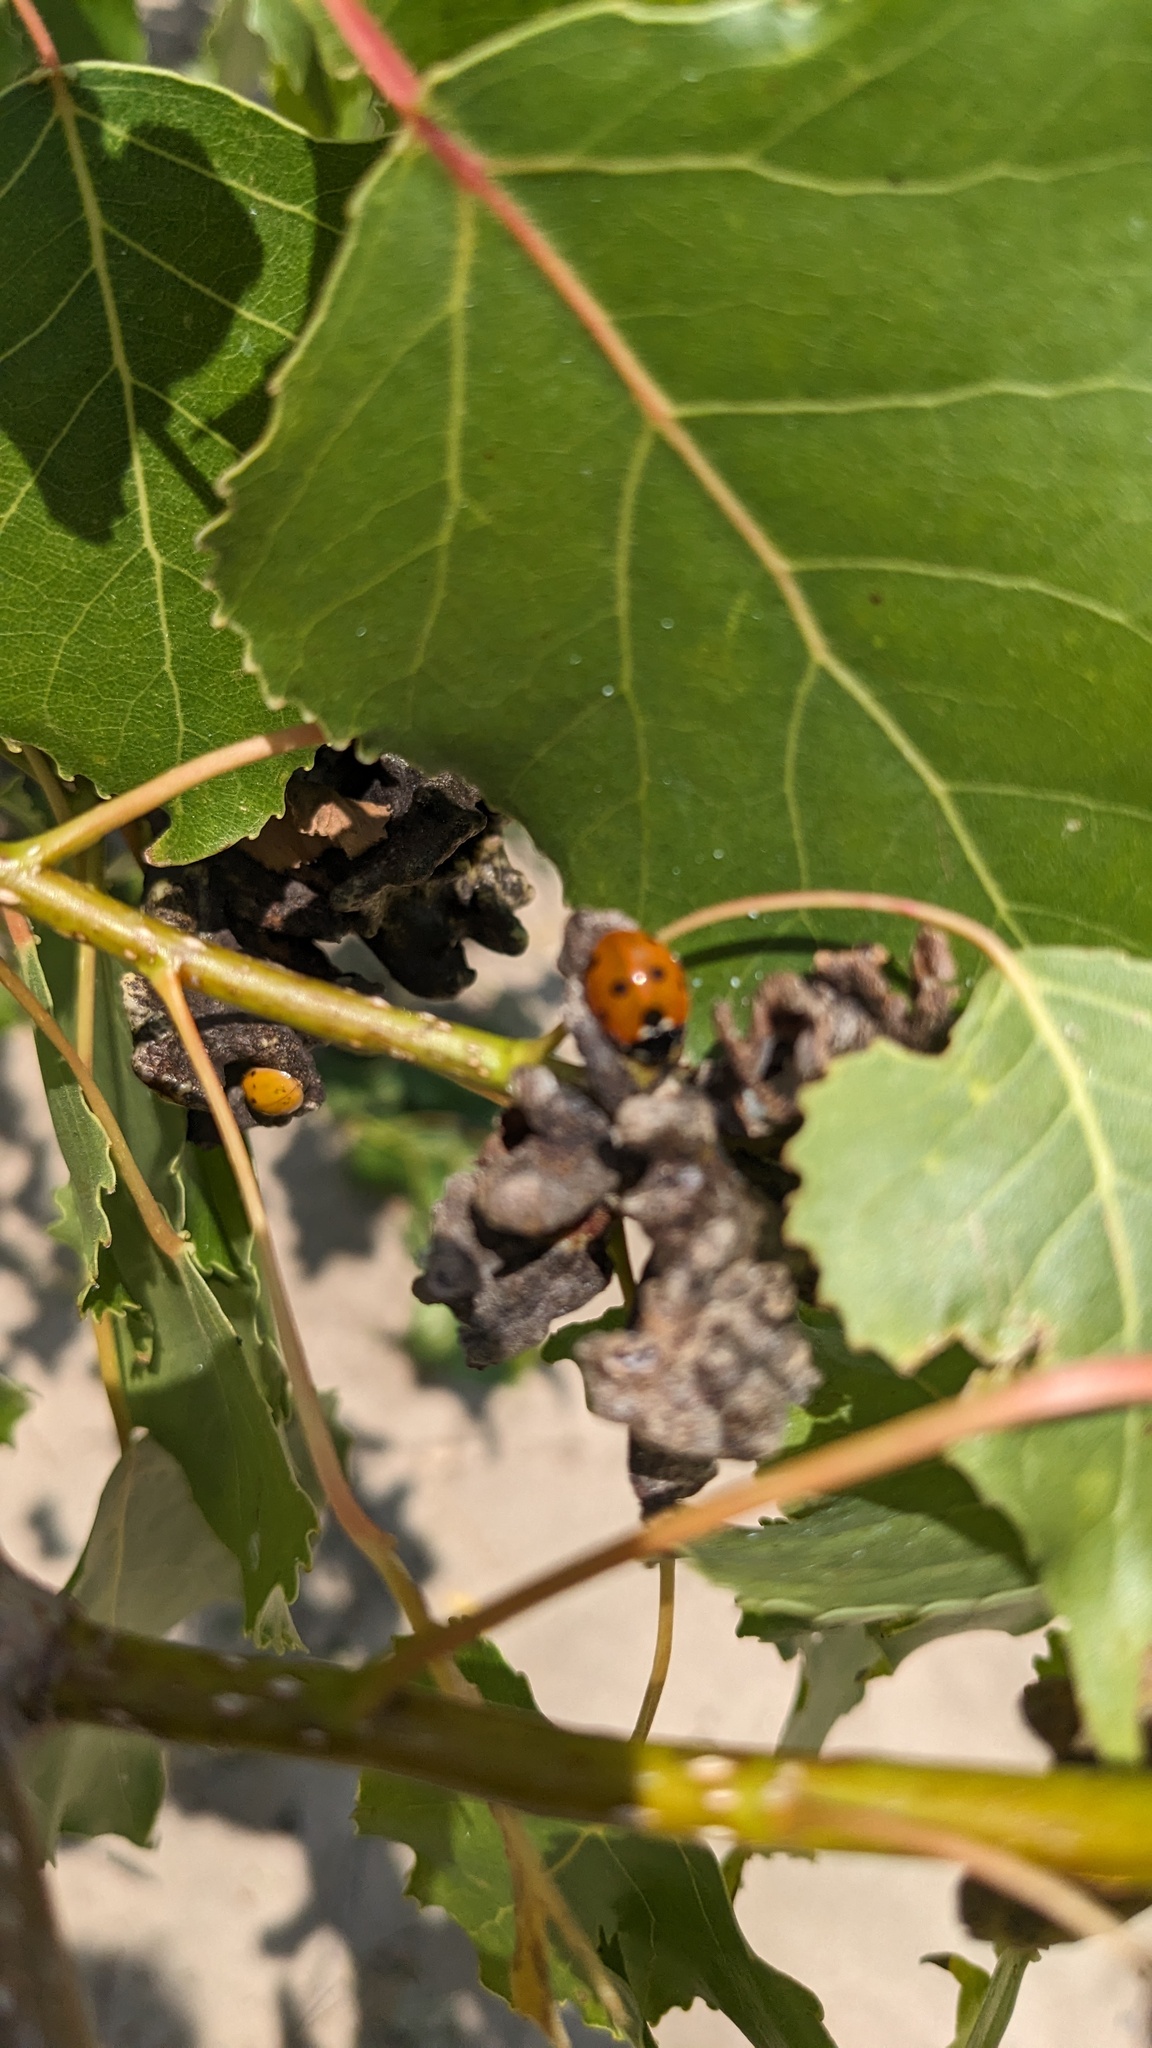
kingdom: Animalia
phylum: Arthropoda
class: Insecta
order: Coleoptera
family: Coccinellidae
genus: Coccinella
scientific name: Coccinella septempunctata
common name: Sevenspotted lady beetle
